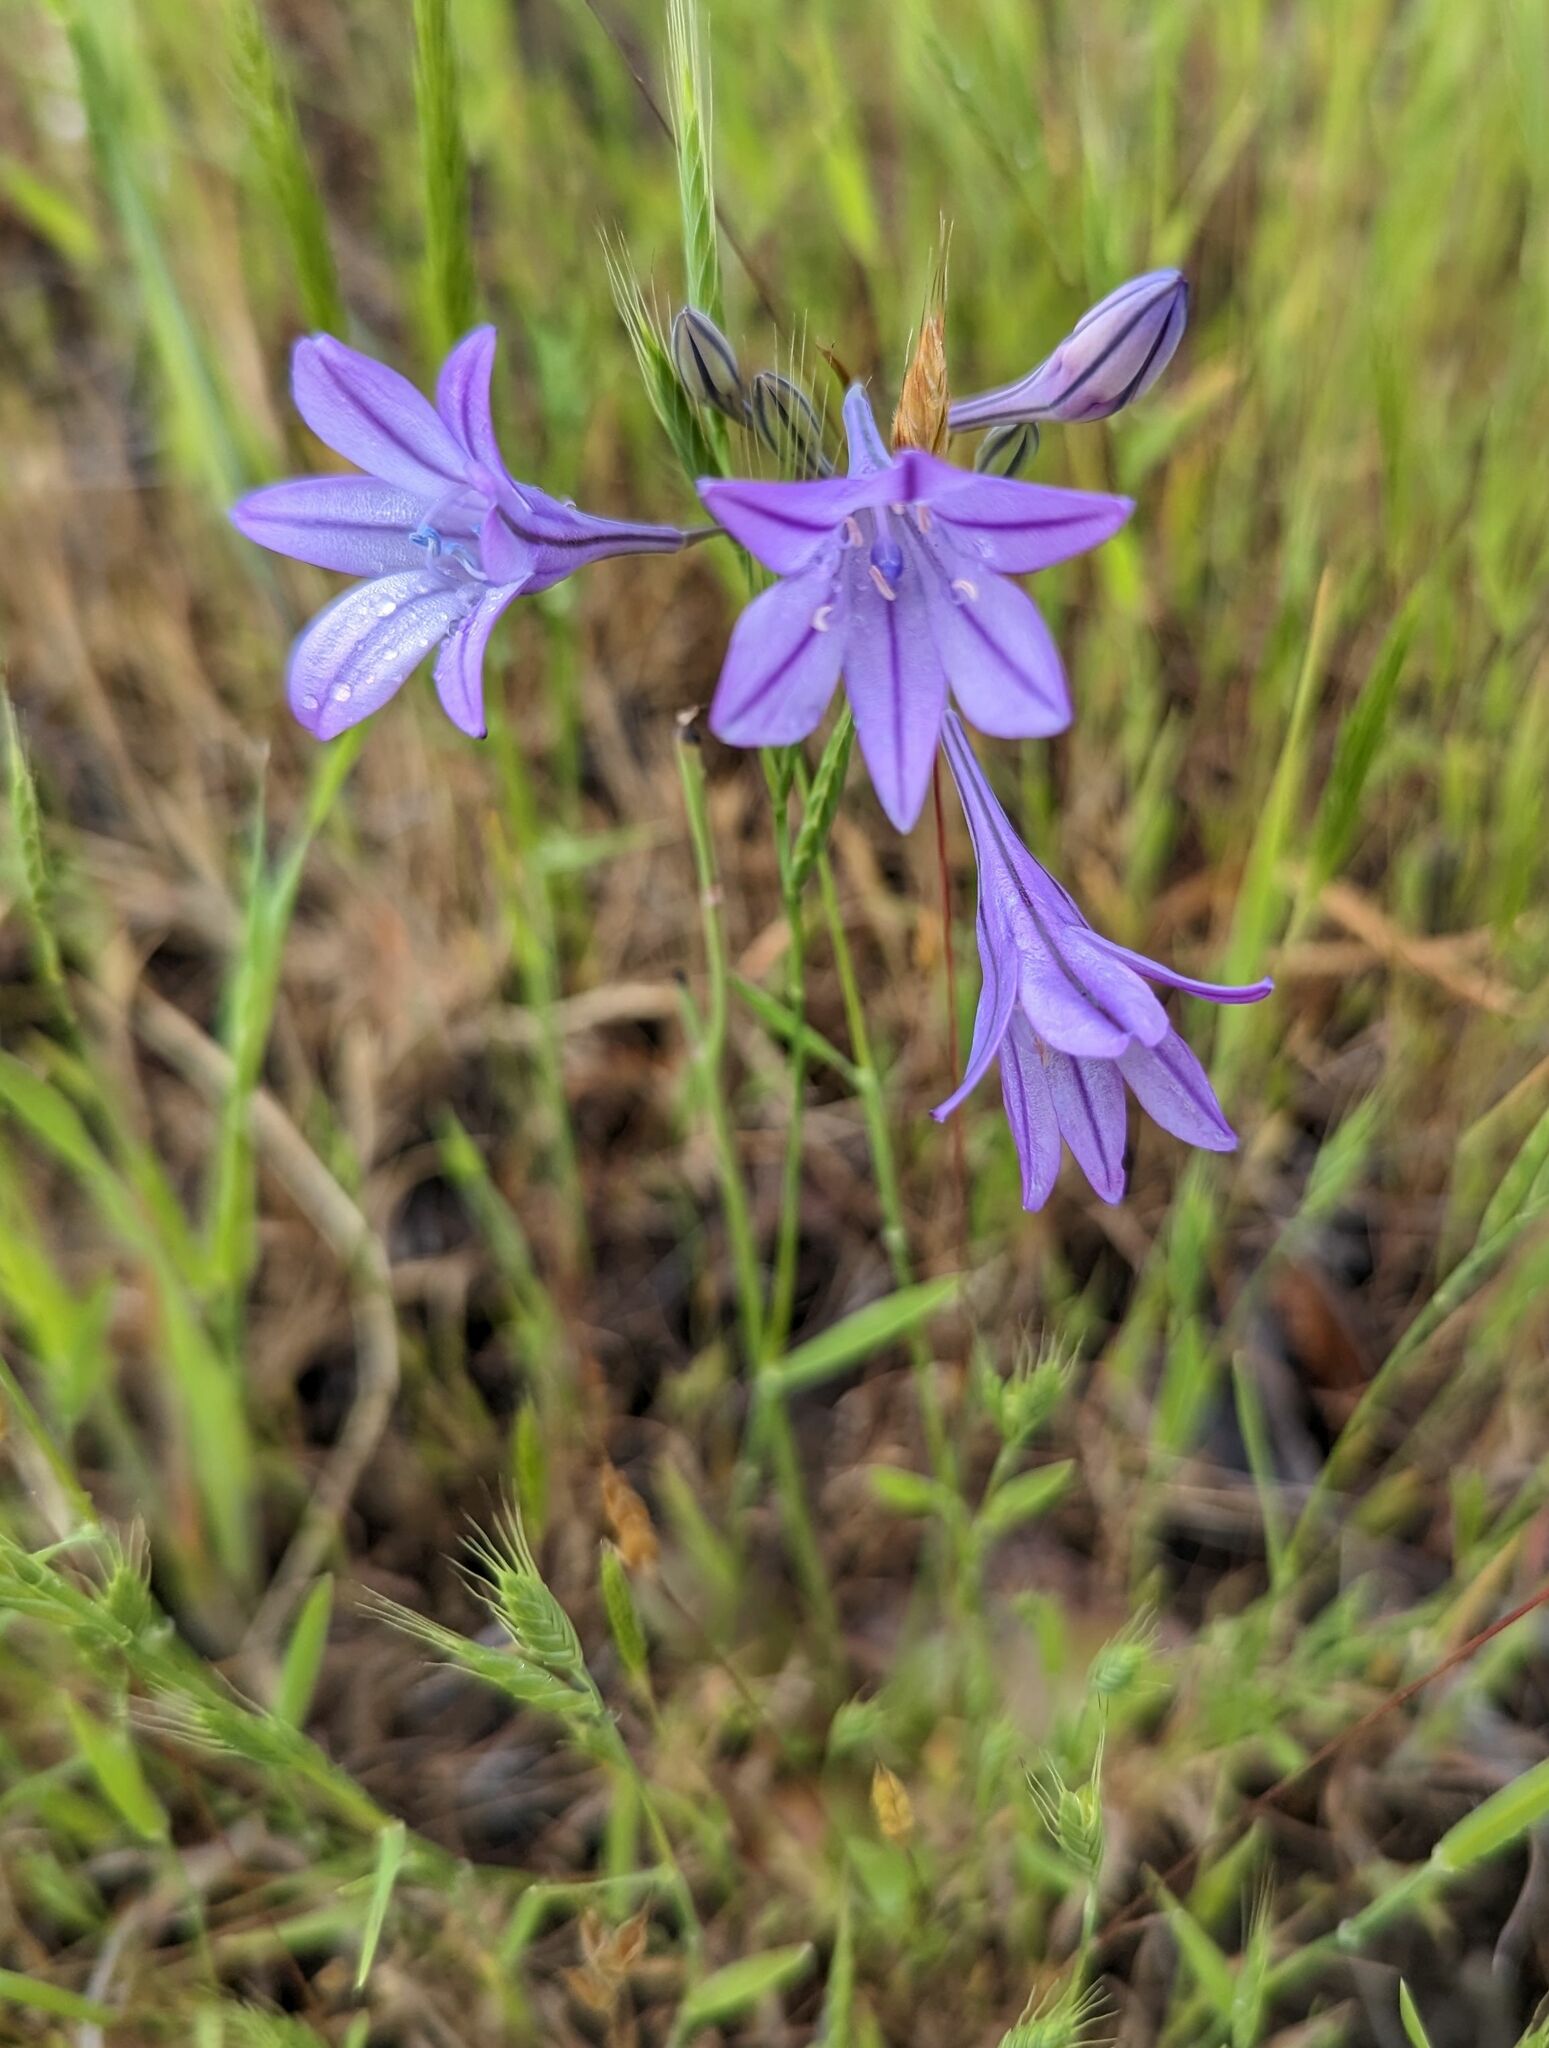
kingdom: Plantae
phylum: Tracheophyta
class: Liliopsida
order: Asparagales
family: Asparagaceae
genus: Triteleia
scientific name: Triteleia laxa
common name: Triplet-lily
